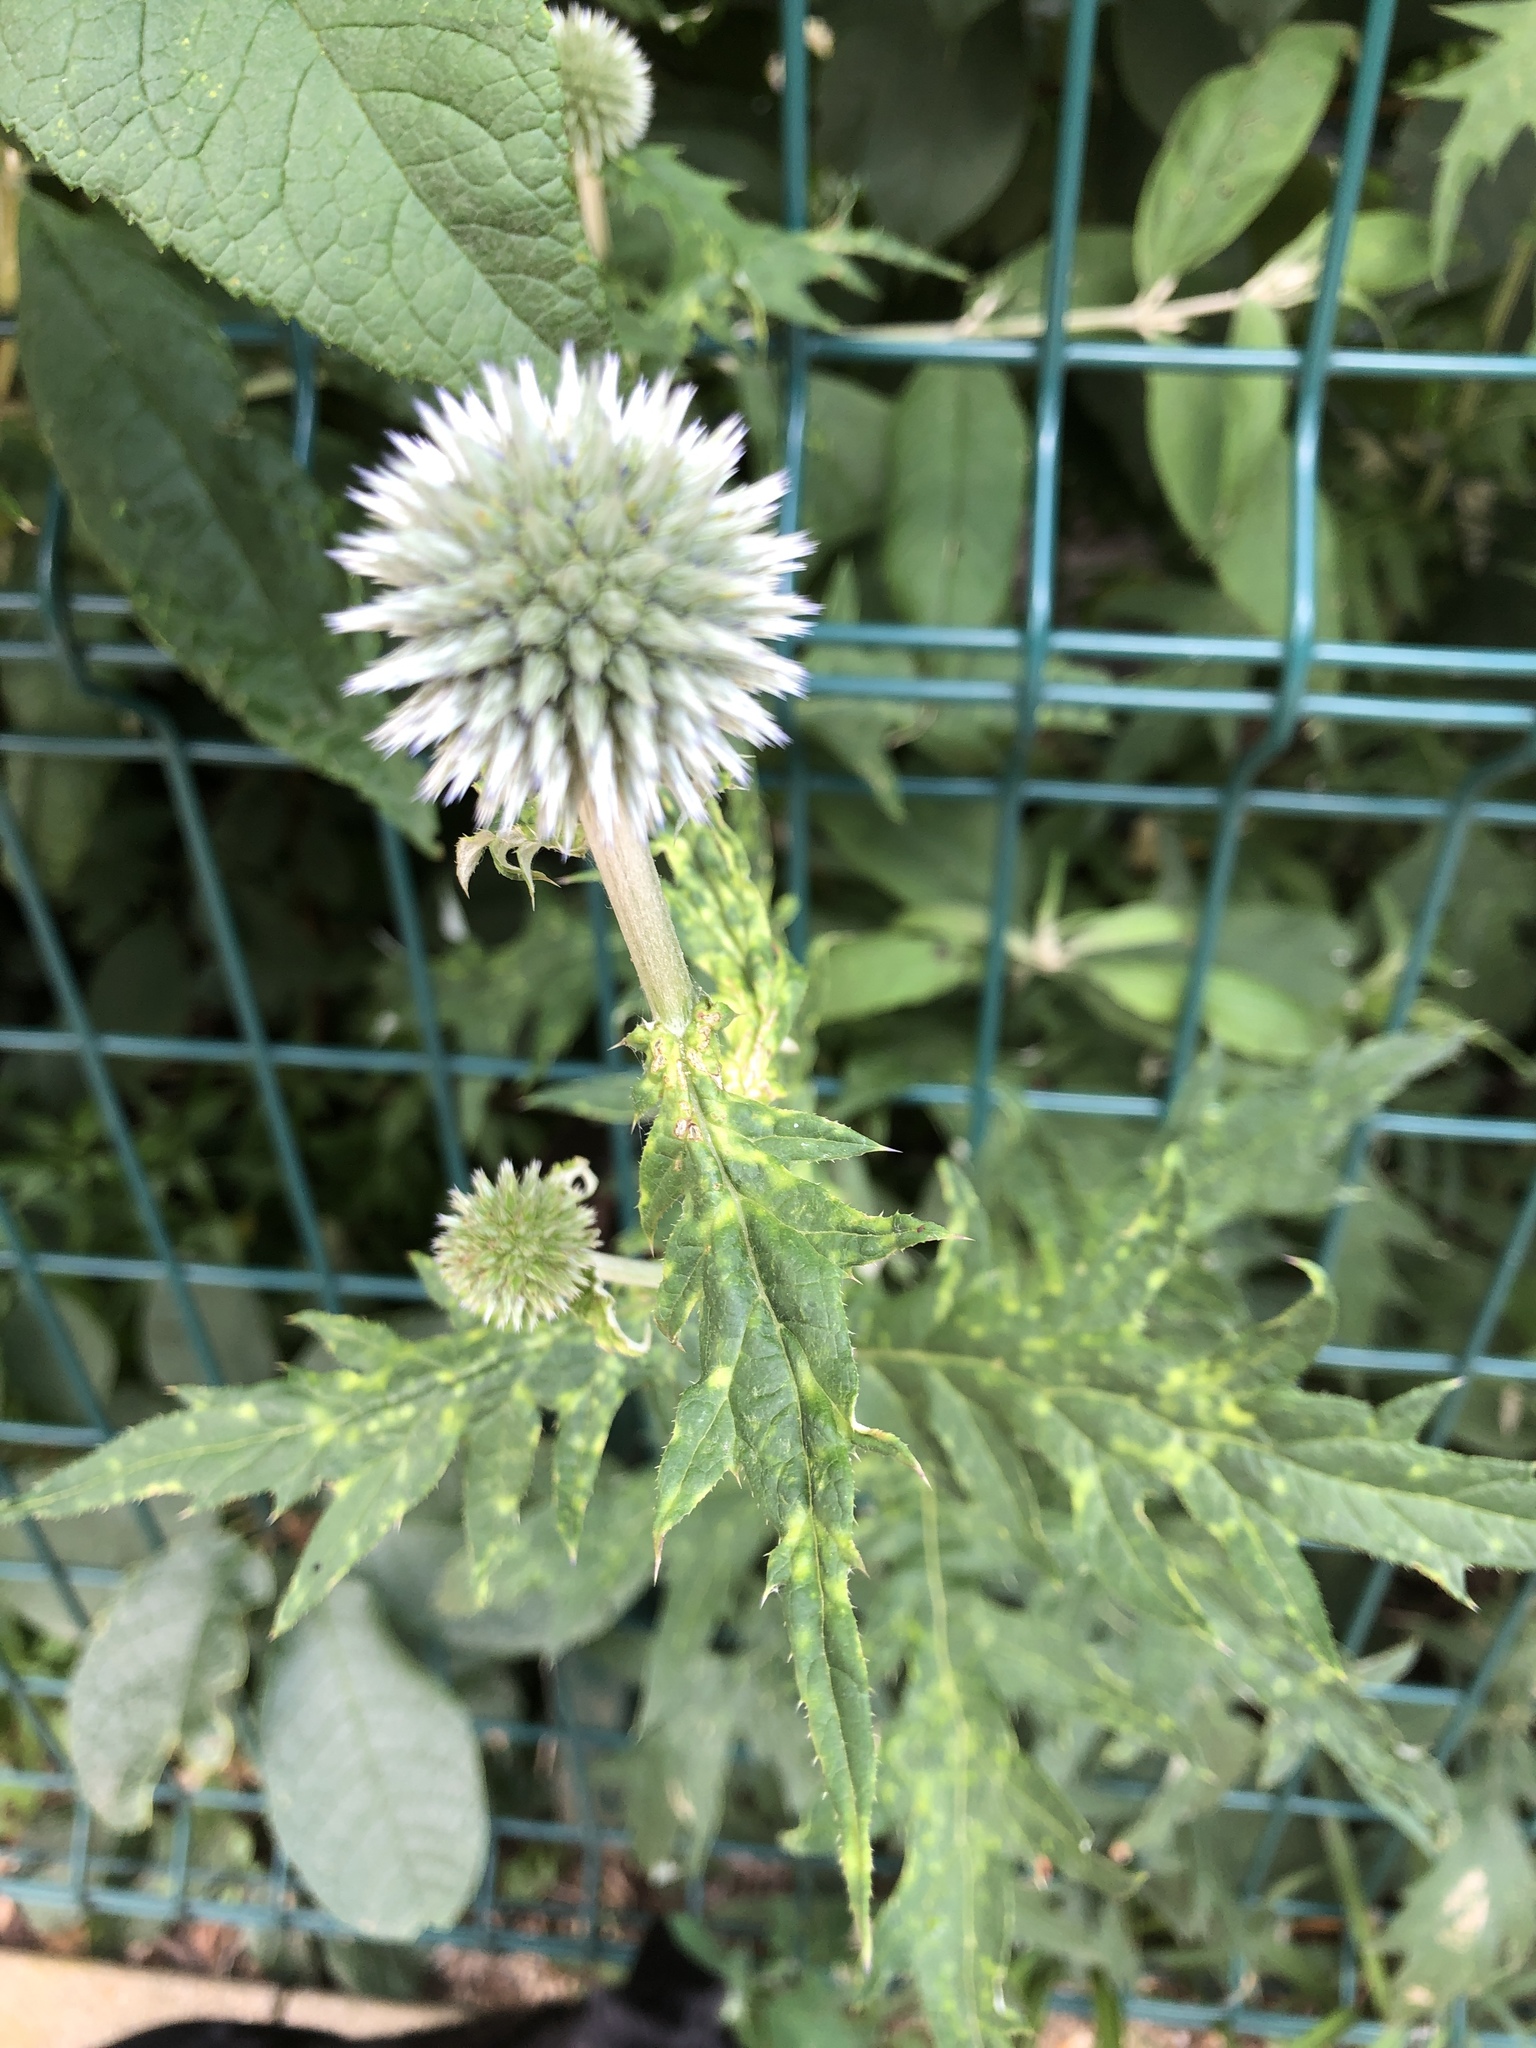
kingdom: Plantae
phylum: Tracheophyta
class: Magnoliopsida
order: Asterales
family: Asteraceae
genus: Echinops
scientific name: Echinops sphaerocephalus
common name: Glandular globe-thistle
